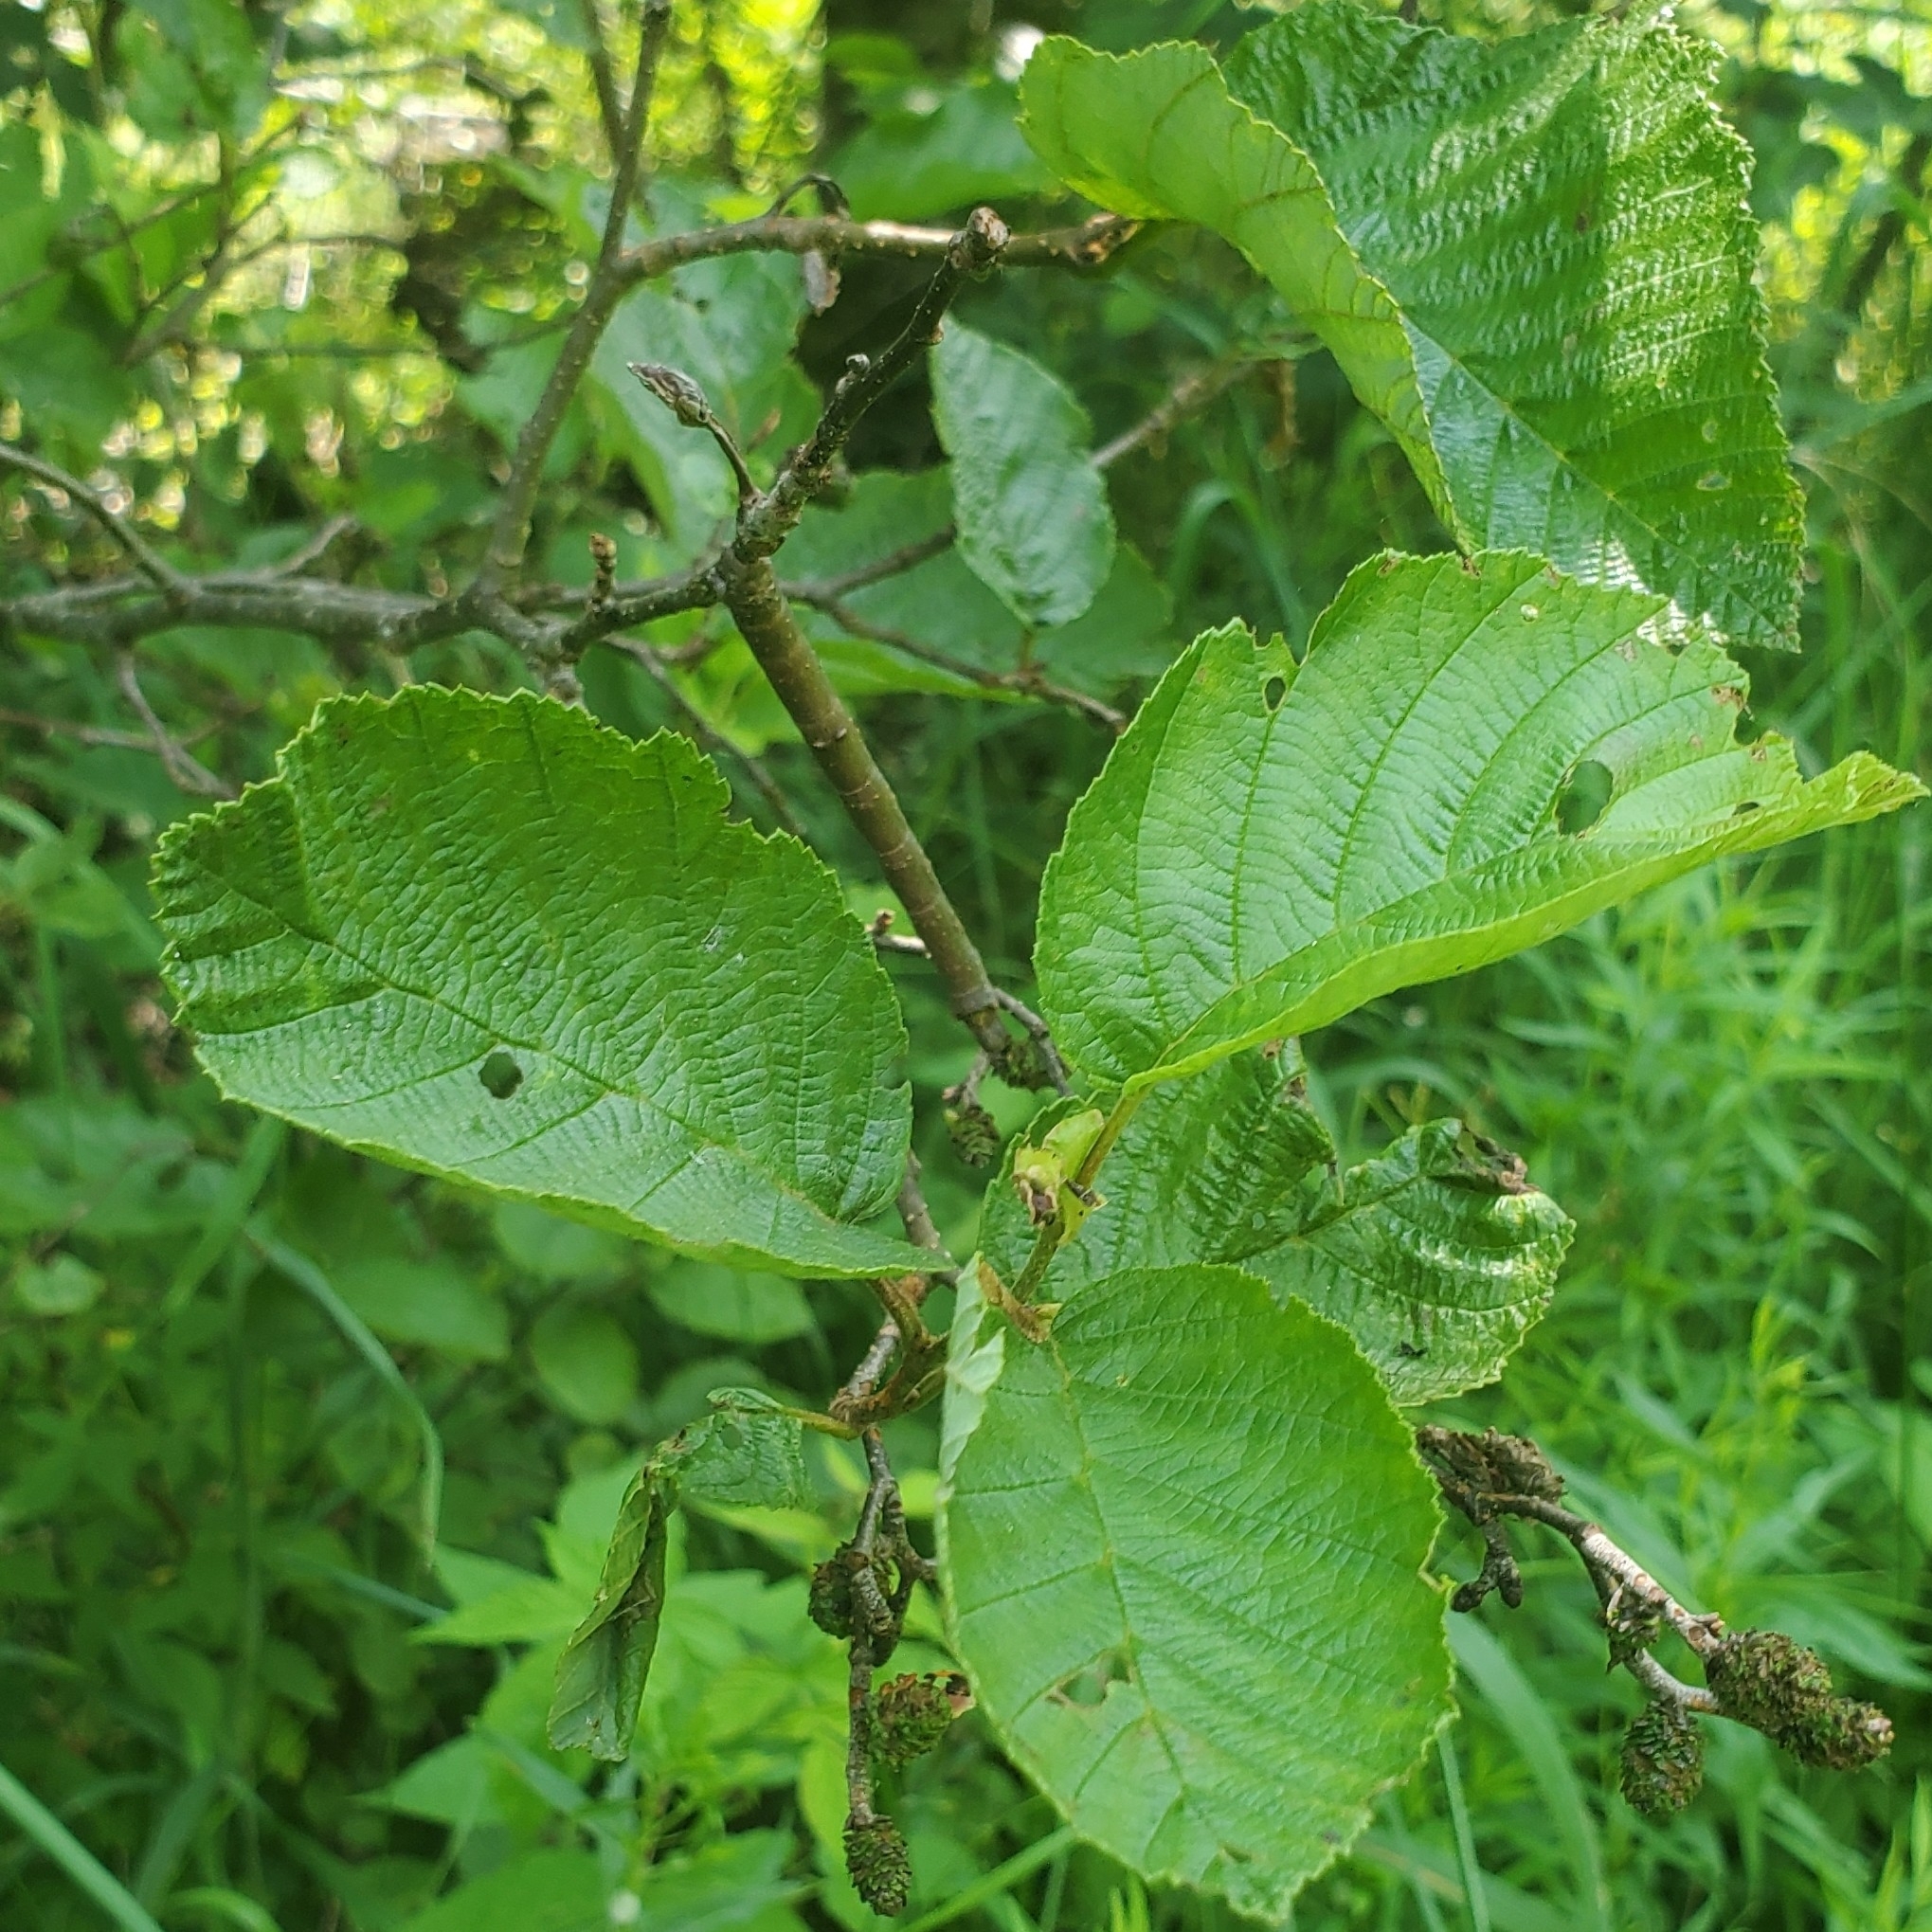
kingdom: Plantae
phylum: Tracheophyta
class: Magnoliopsida
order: Fagales
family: Betulaceae
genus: Alnus
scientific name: Alnus incana
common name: Grey alder
